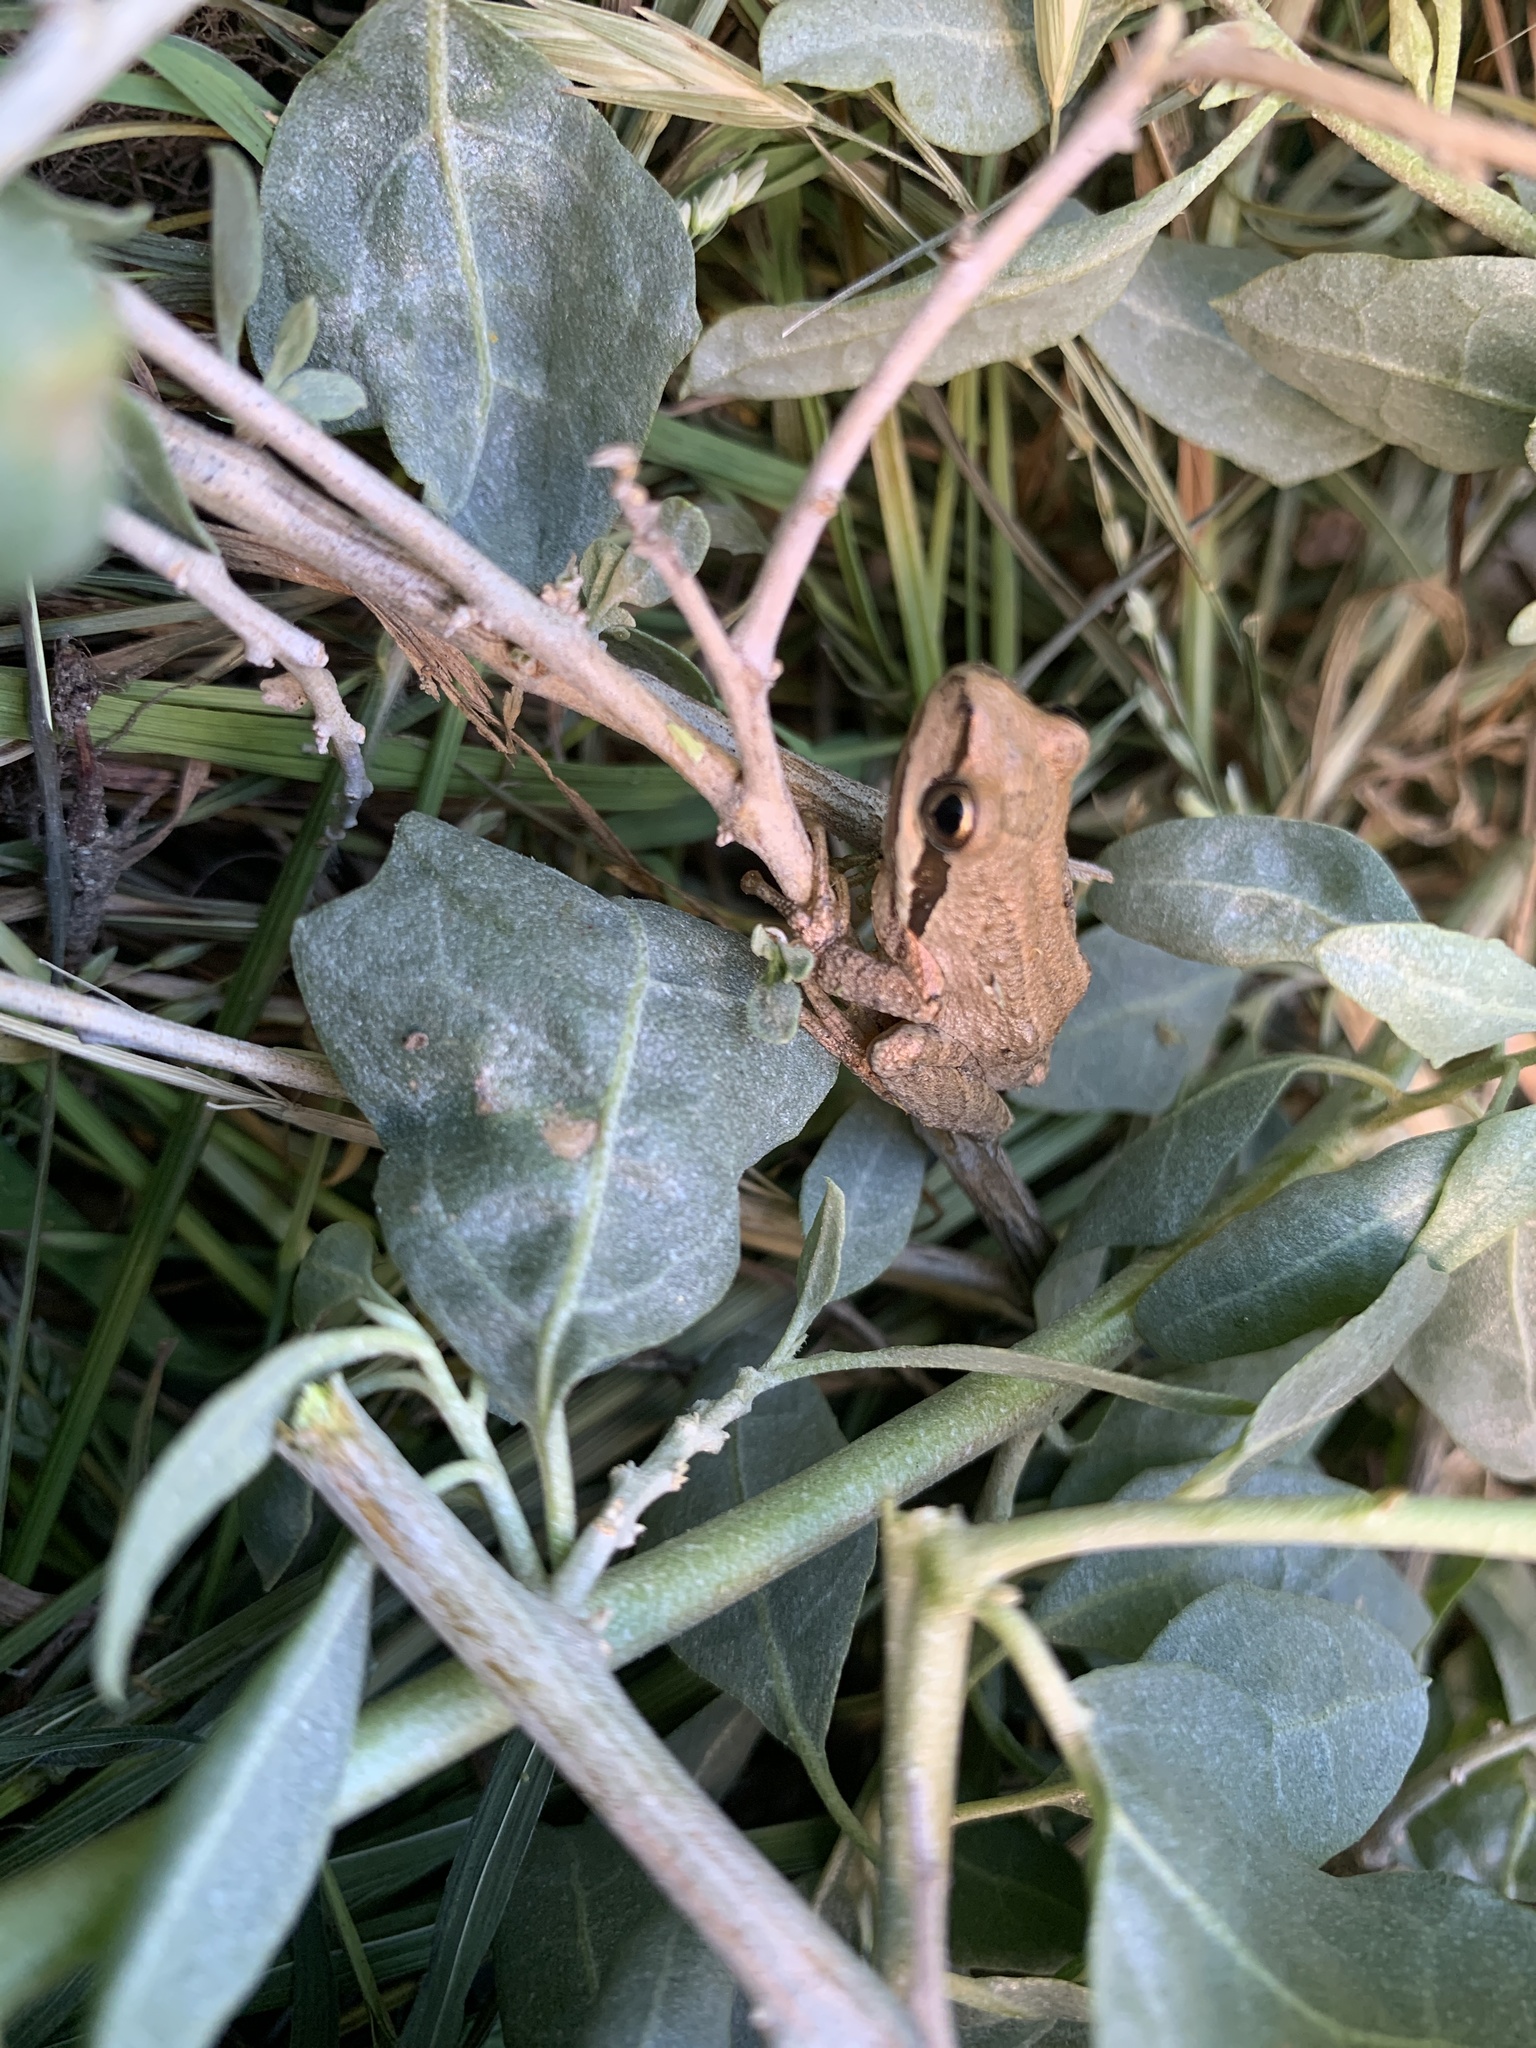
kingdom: Animalia
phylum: Chordata
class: Amphibia
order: Anura
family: Hylidae
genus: Pseudacris
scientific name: Pseudacris regilla
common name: Pacific chorus frog
